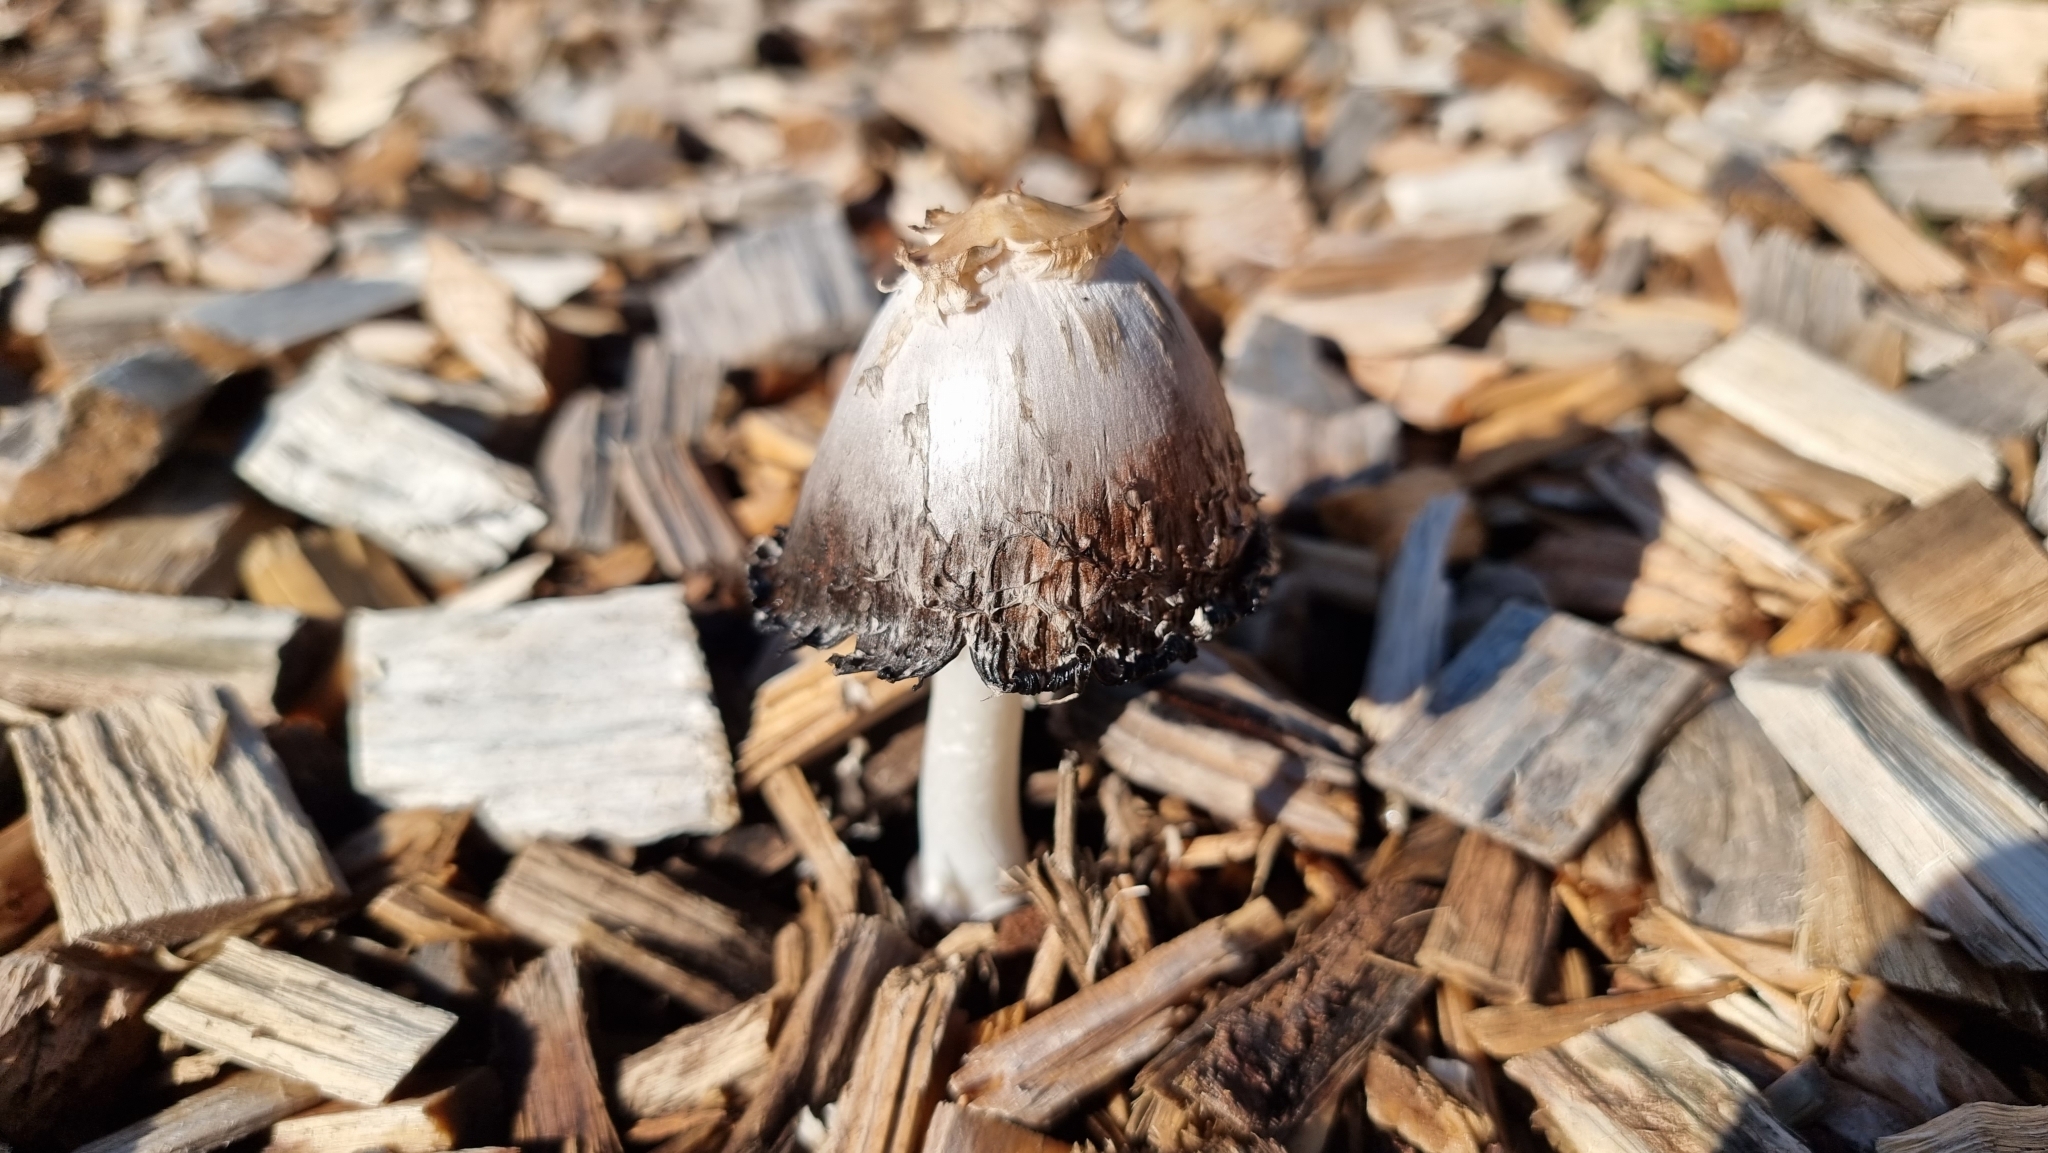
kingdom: Fungi
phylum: Basidiomycota
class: Agaricomycetes
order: Agaricales
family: Agaricaceae
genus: Coprinus
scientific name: Coprinus comatus
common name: Lawyer's wig
